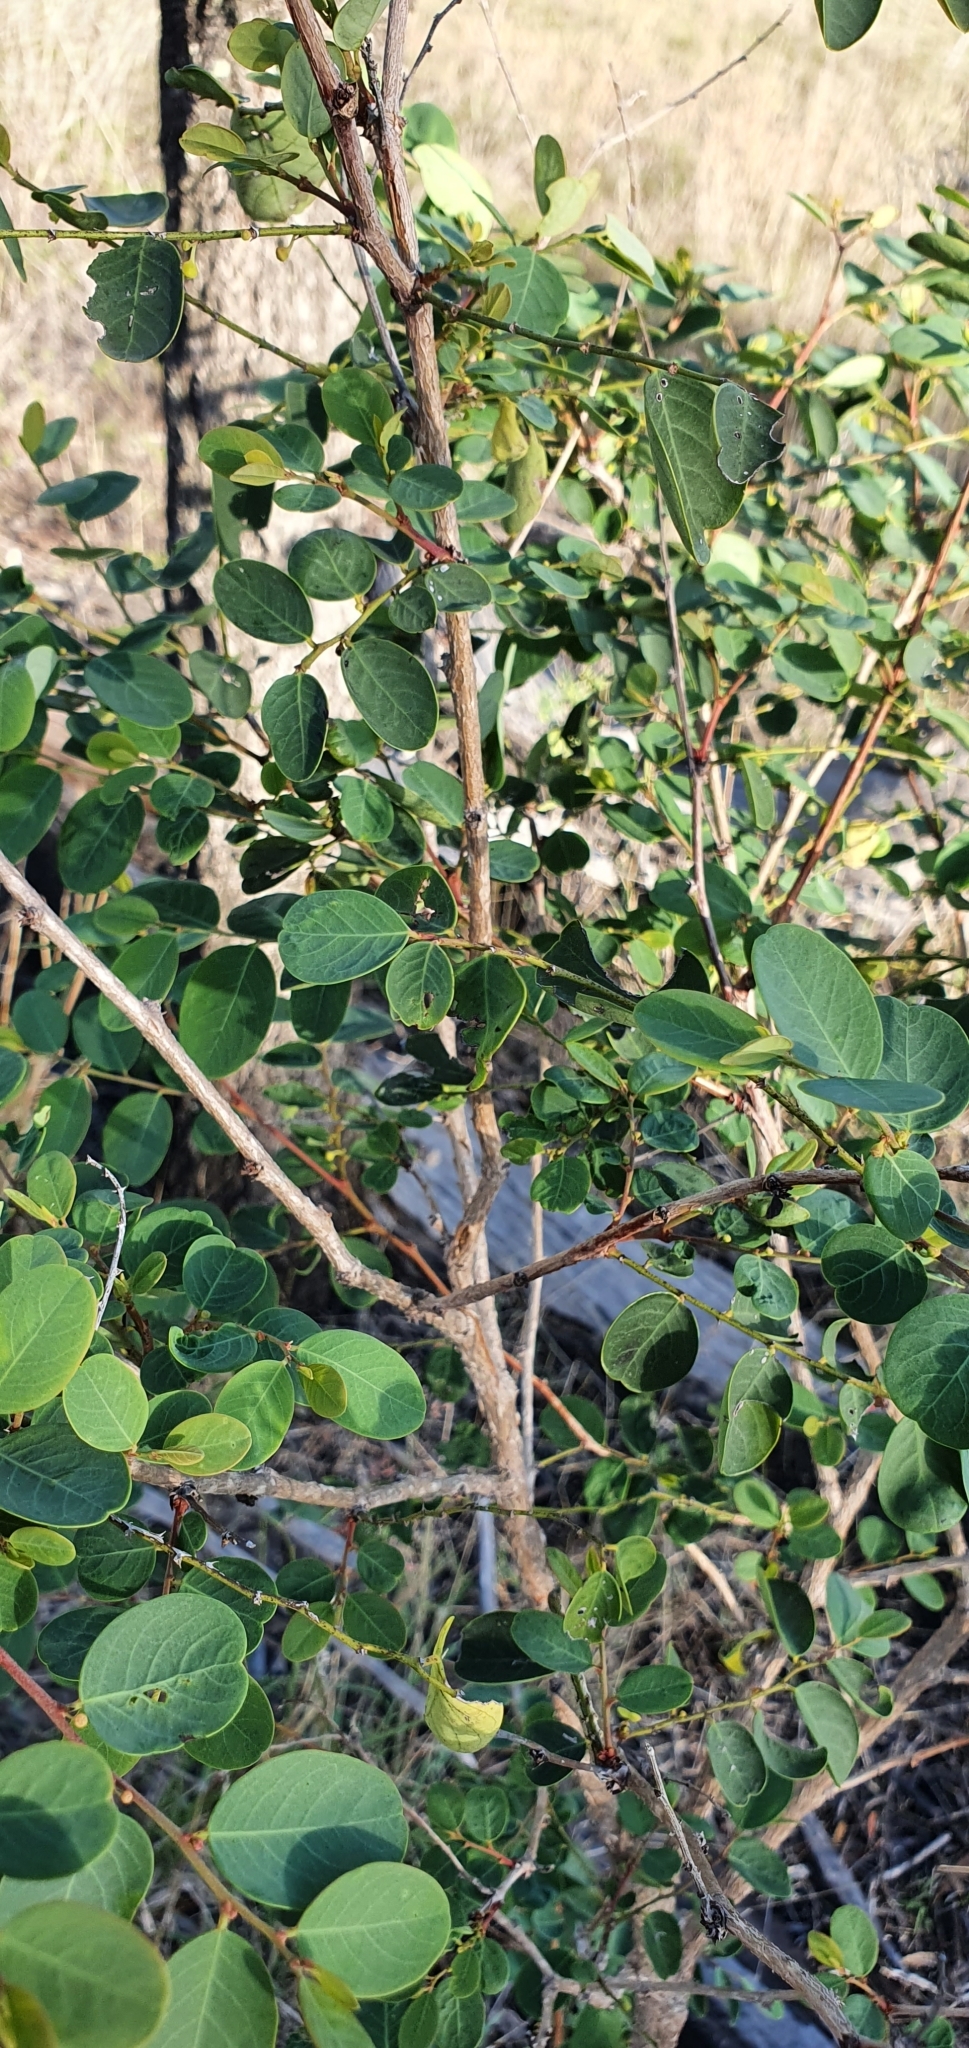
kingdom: Plantae
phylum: Tracheophyta
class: Magnoliopsida
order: Malpighiales
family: Phyllanthaceae
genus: Breynia
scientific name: Breynia oblongifolia
